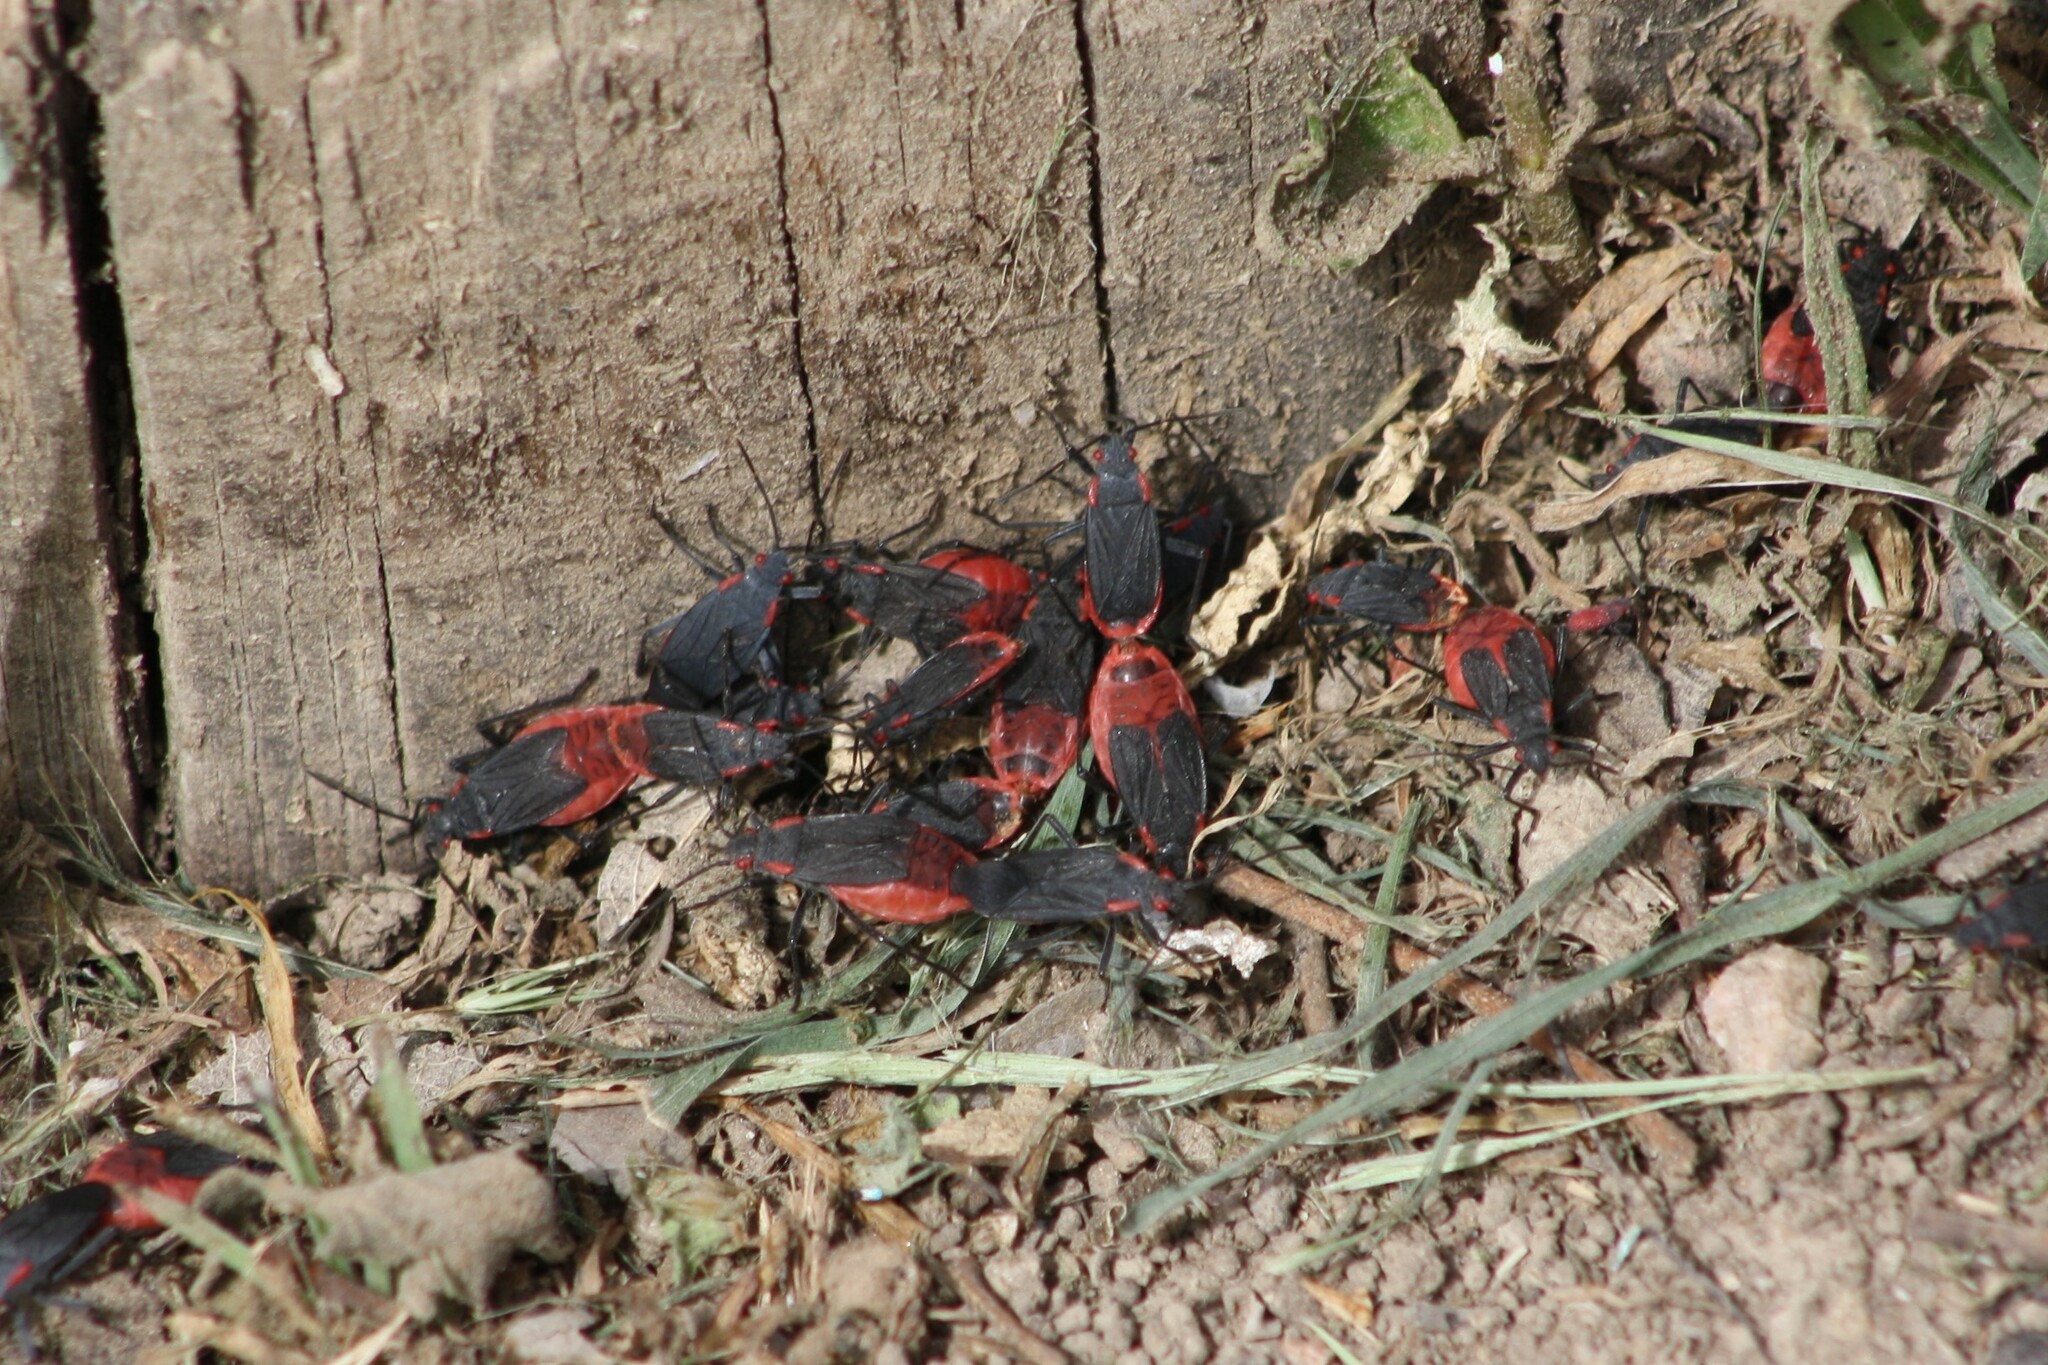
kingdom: Animalia
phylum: Arthropoda
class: Insecta
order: Hemiptera
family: Rhopalidae
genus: Jadera
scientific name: Jadera haematoloma
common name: Red-shouldered bug
